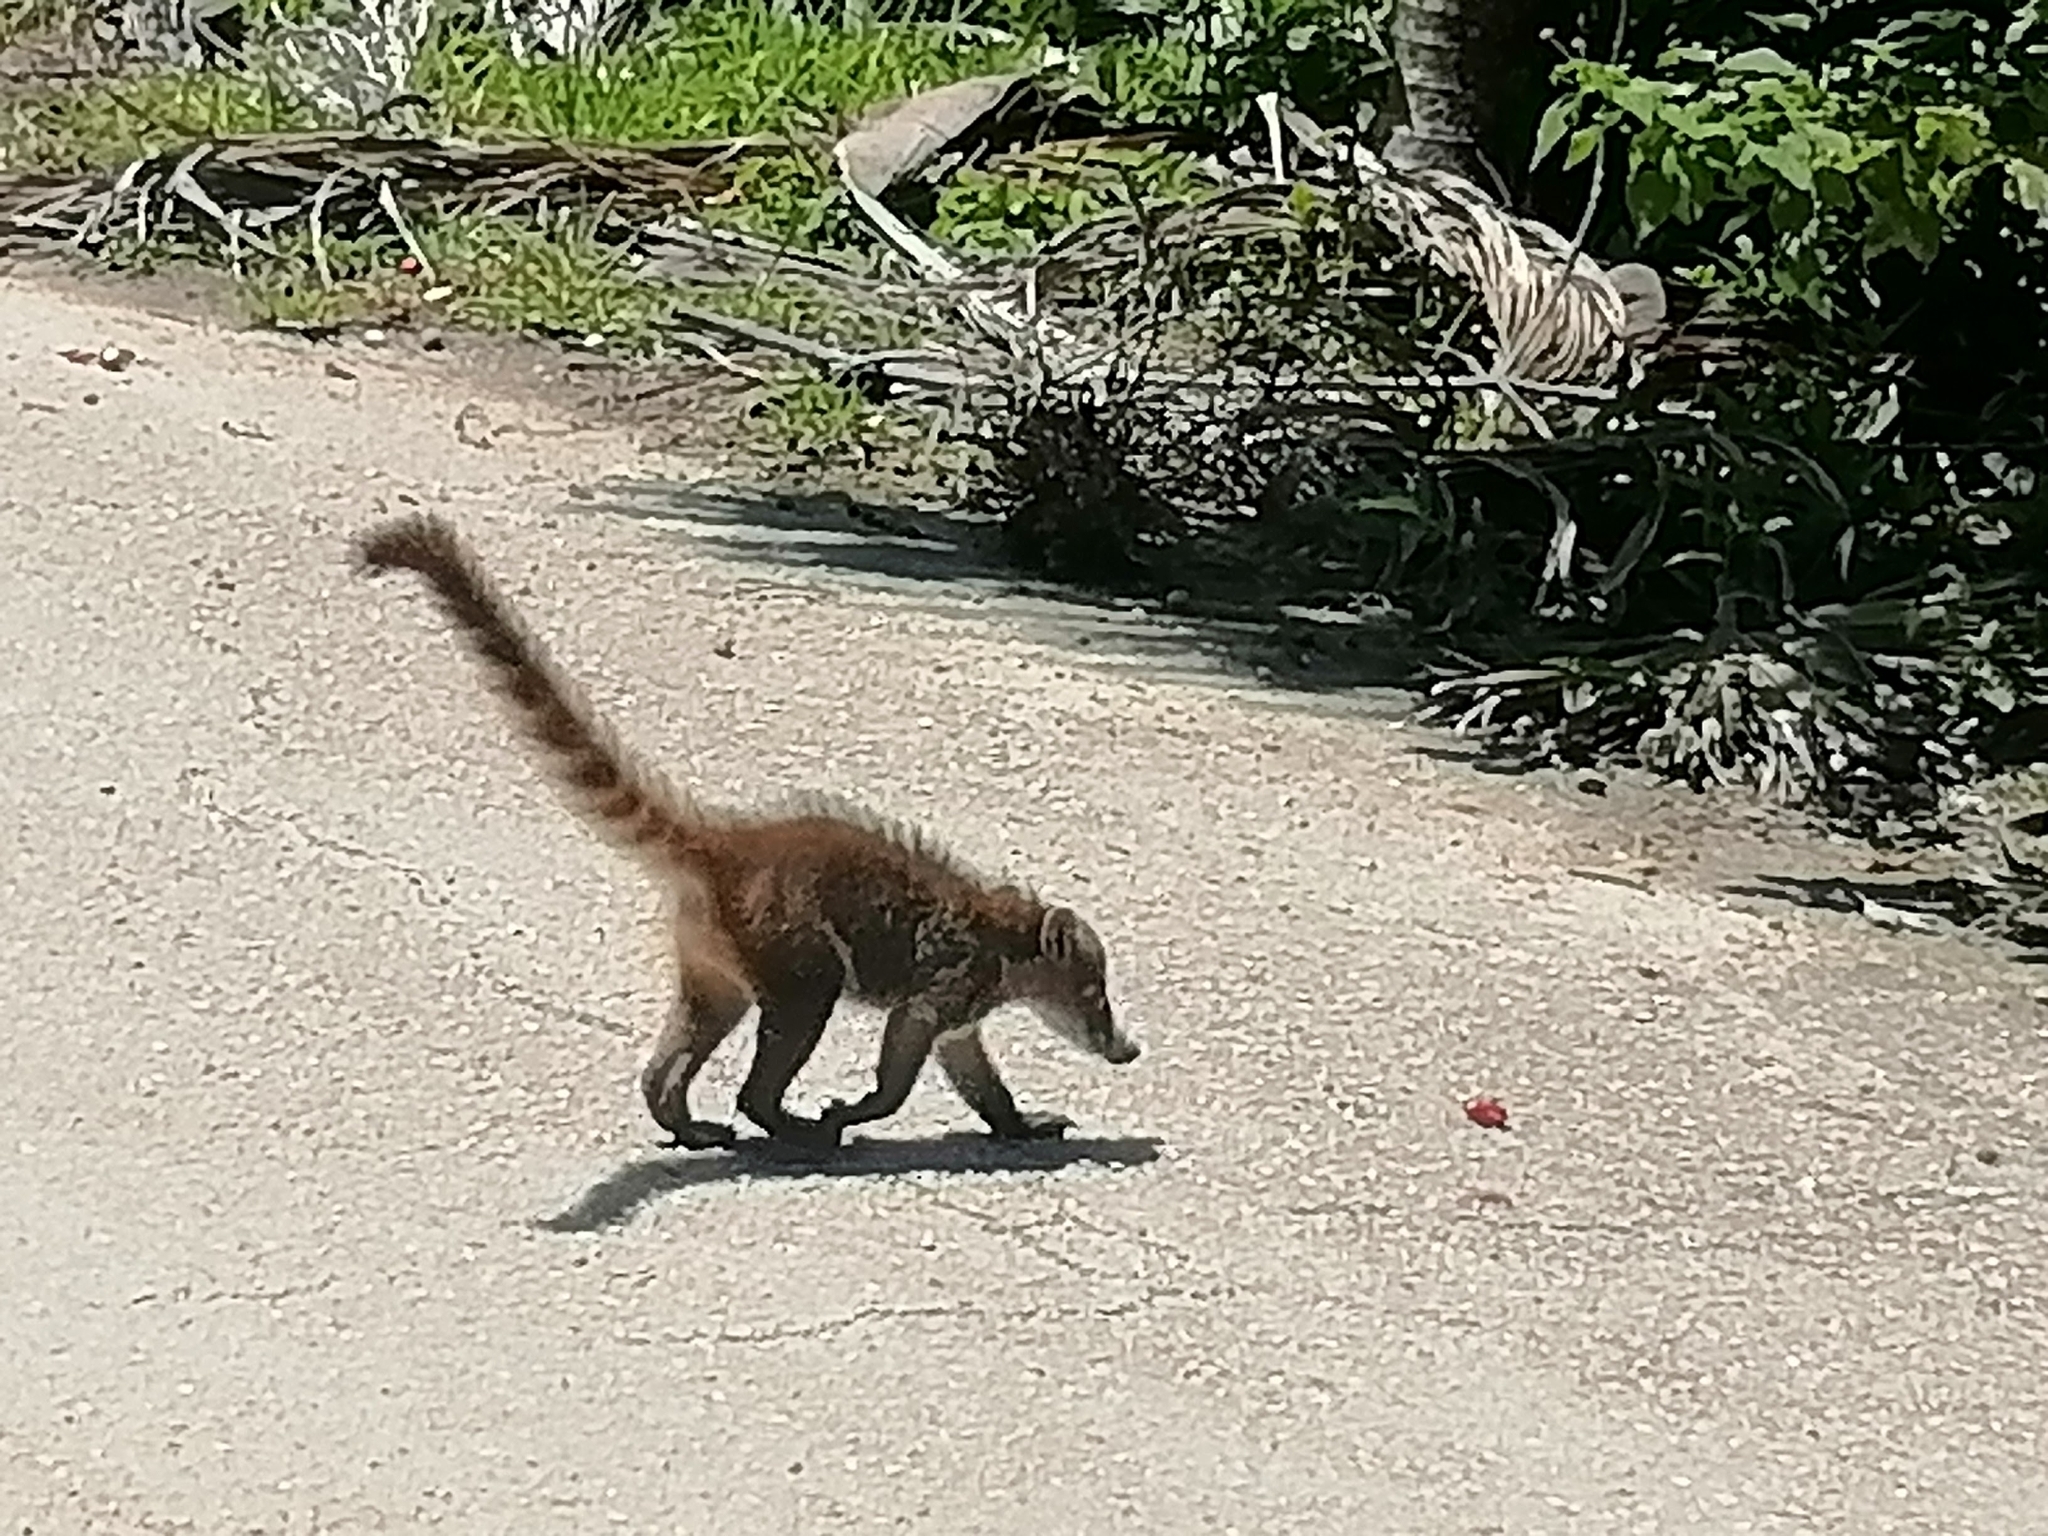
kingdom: Animalia
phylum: Chordata
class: Mammalia
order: Carnivora
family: Procyonidae
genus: Nasua
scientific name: Nasua narica
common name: White-nosed coati
